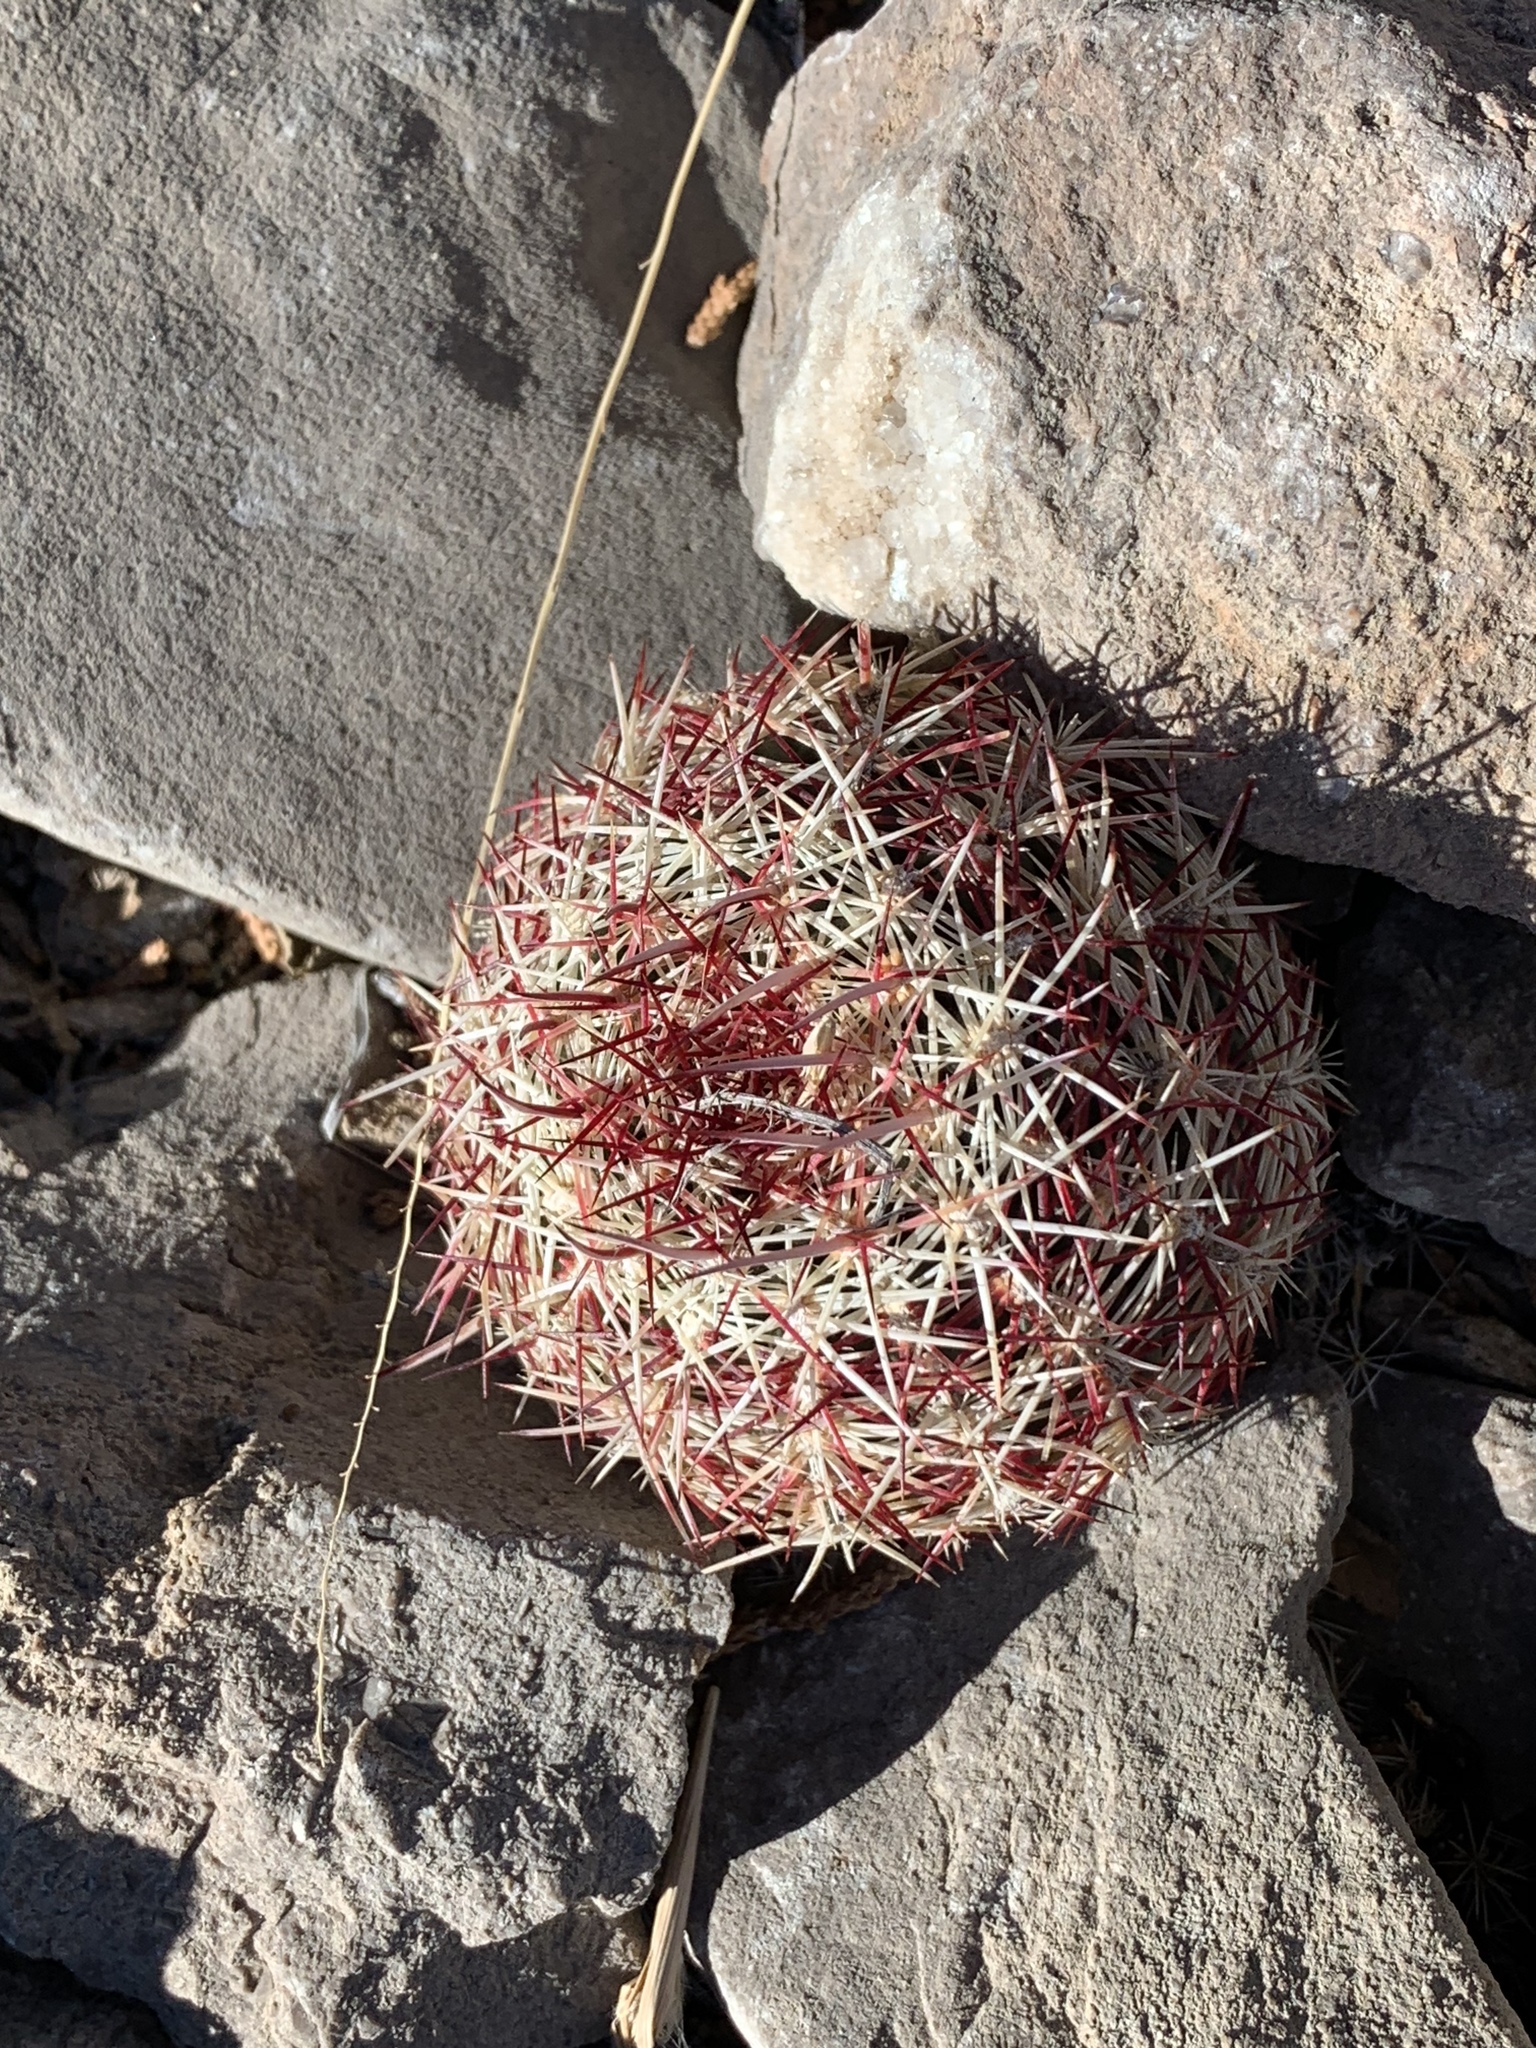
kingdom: Plantae
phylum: Tracheophyta
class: Magnoliopsida
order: Caryophyllales
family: Cactaceae
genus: Echinocereus
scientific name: Echinocereus viridiflorus
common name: Nylon hedgehog cactus
